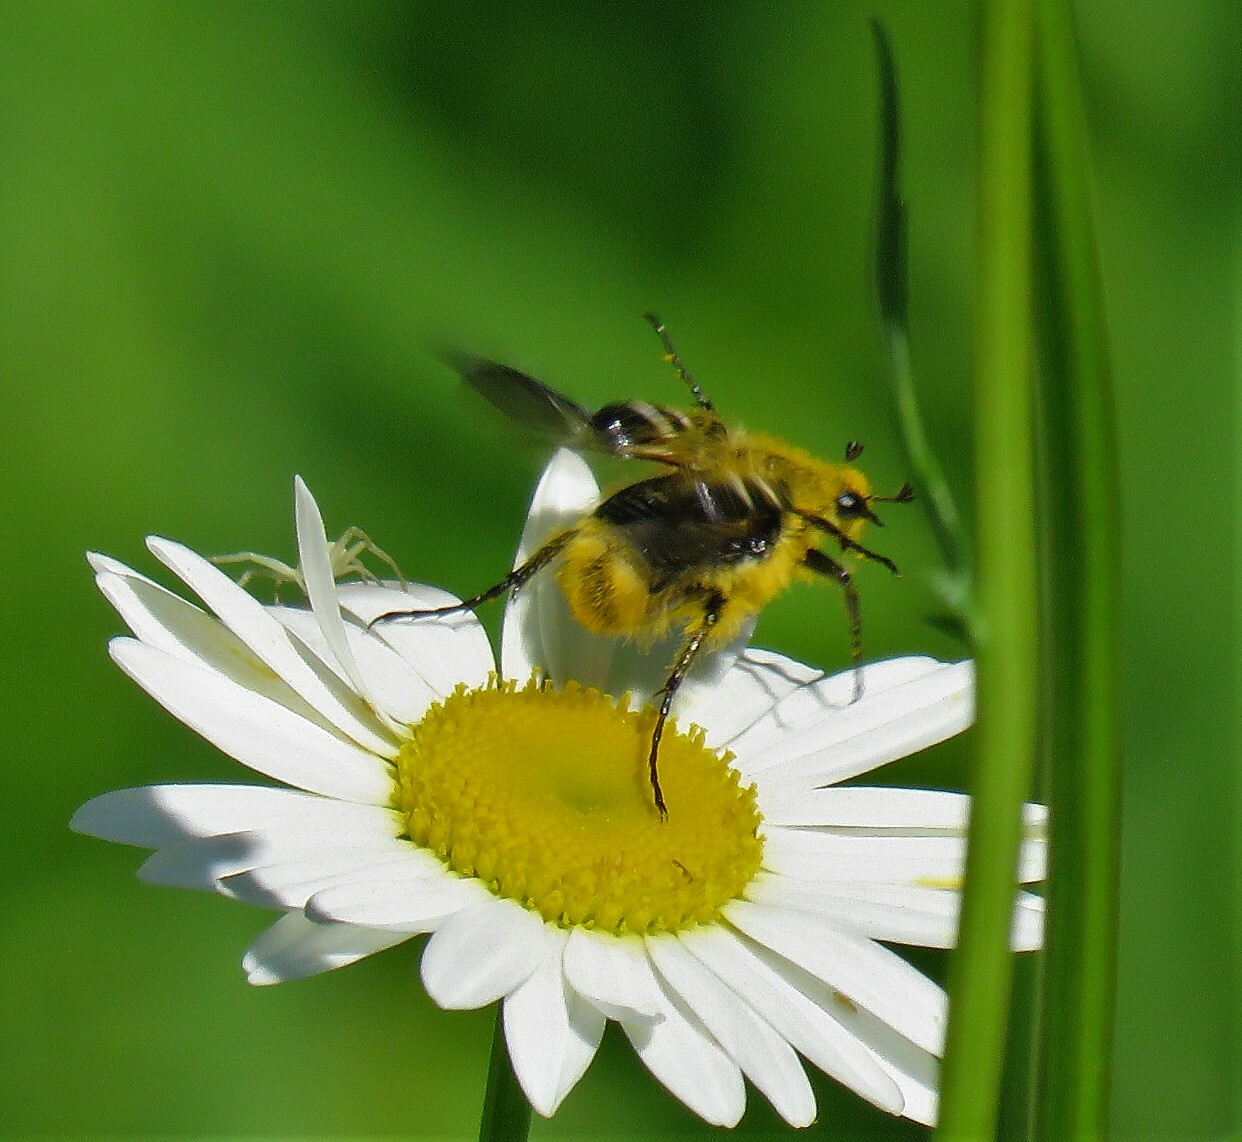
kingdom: Animalia
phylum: Arthropoda
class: Insecta
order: Coleoptera
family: Scarabaeidae
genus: Trichiotinus
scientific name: Trichiotinus assimilis
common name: Bee-mimic beetle
